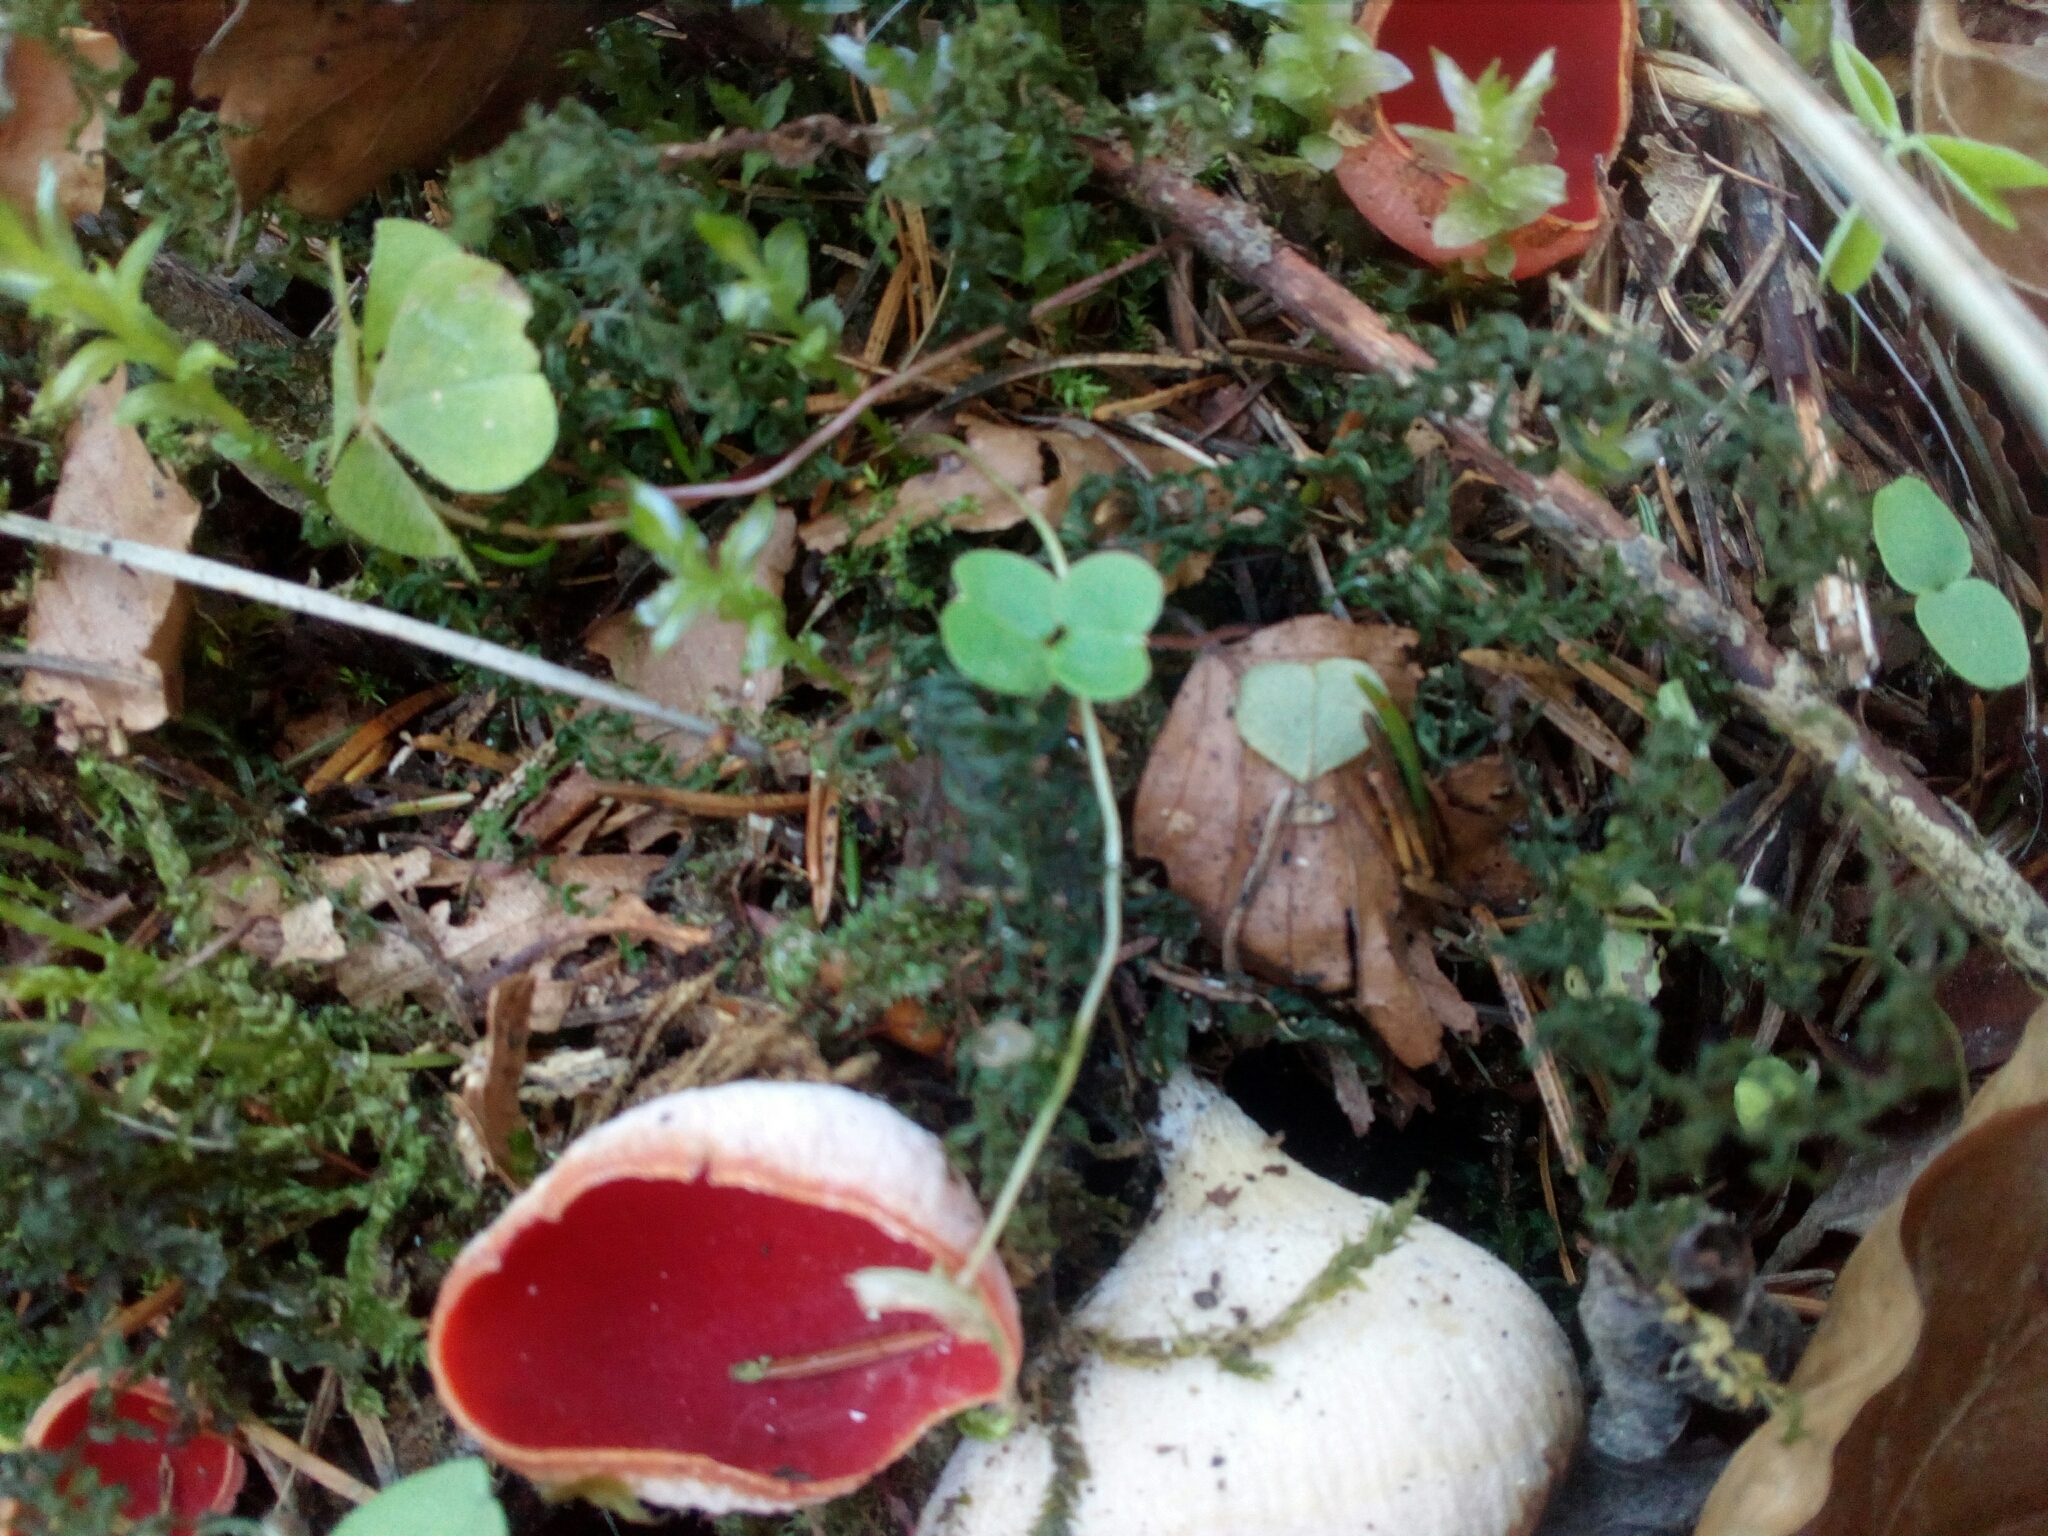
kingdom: Fungi
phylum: Ascomycota
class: Pezizomycetes
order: Pezizales
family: Sarcoscyphaceae
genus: Sarcoscypha
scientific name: Sarcoscypha
